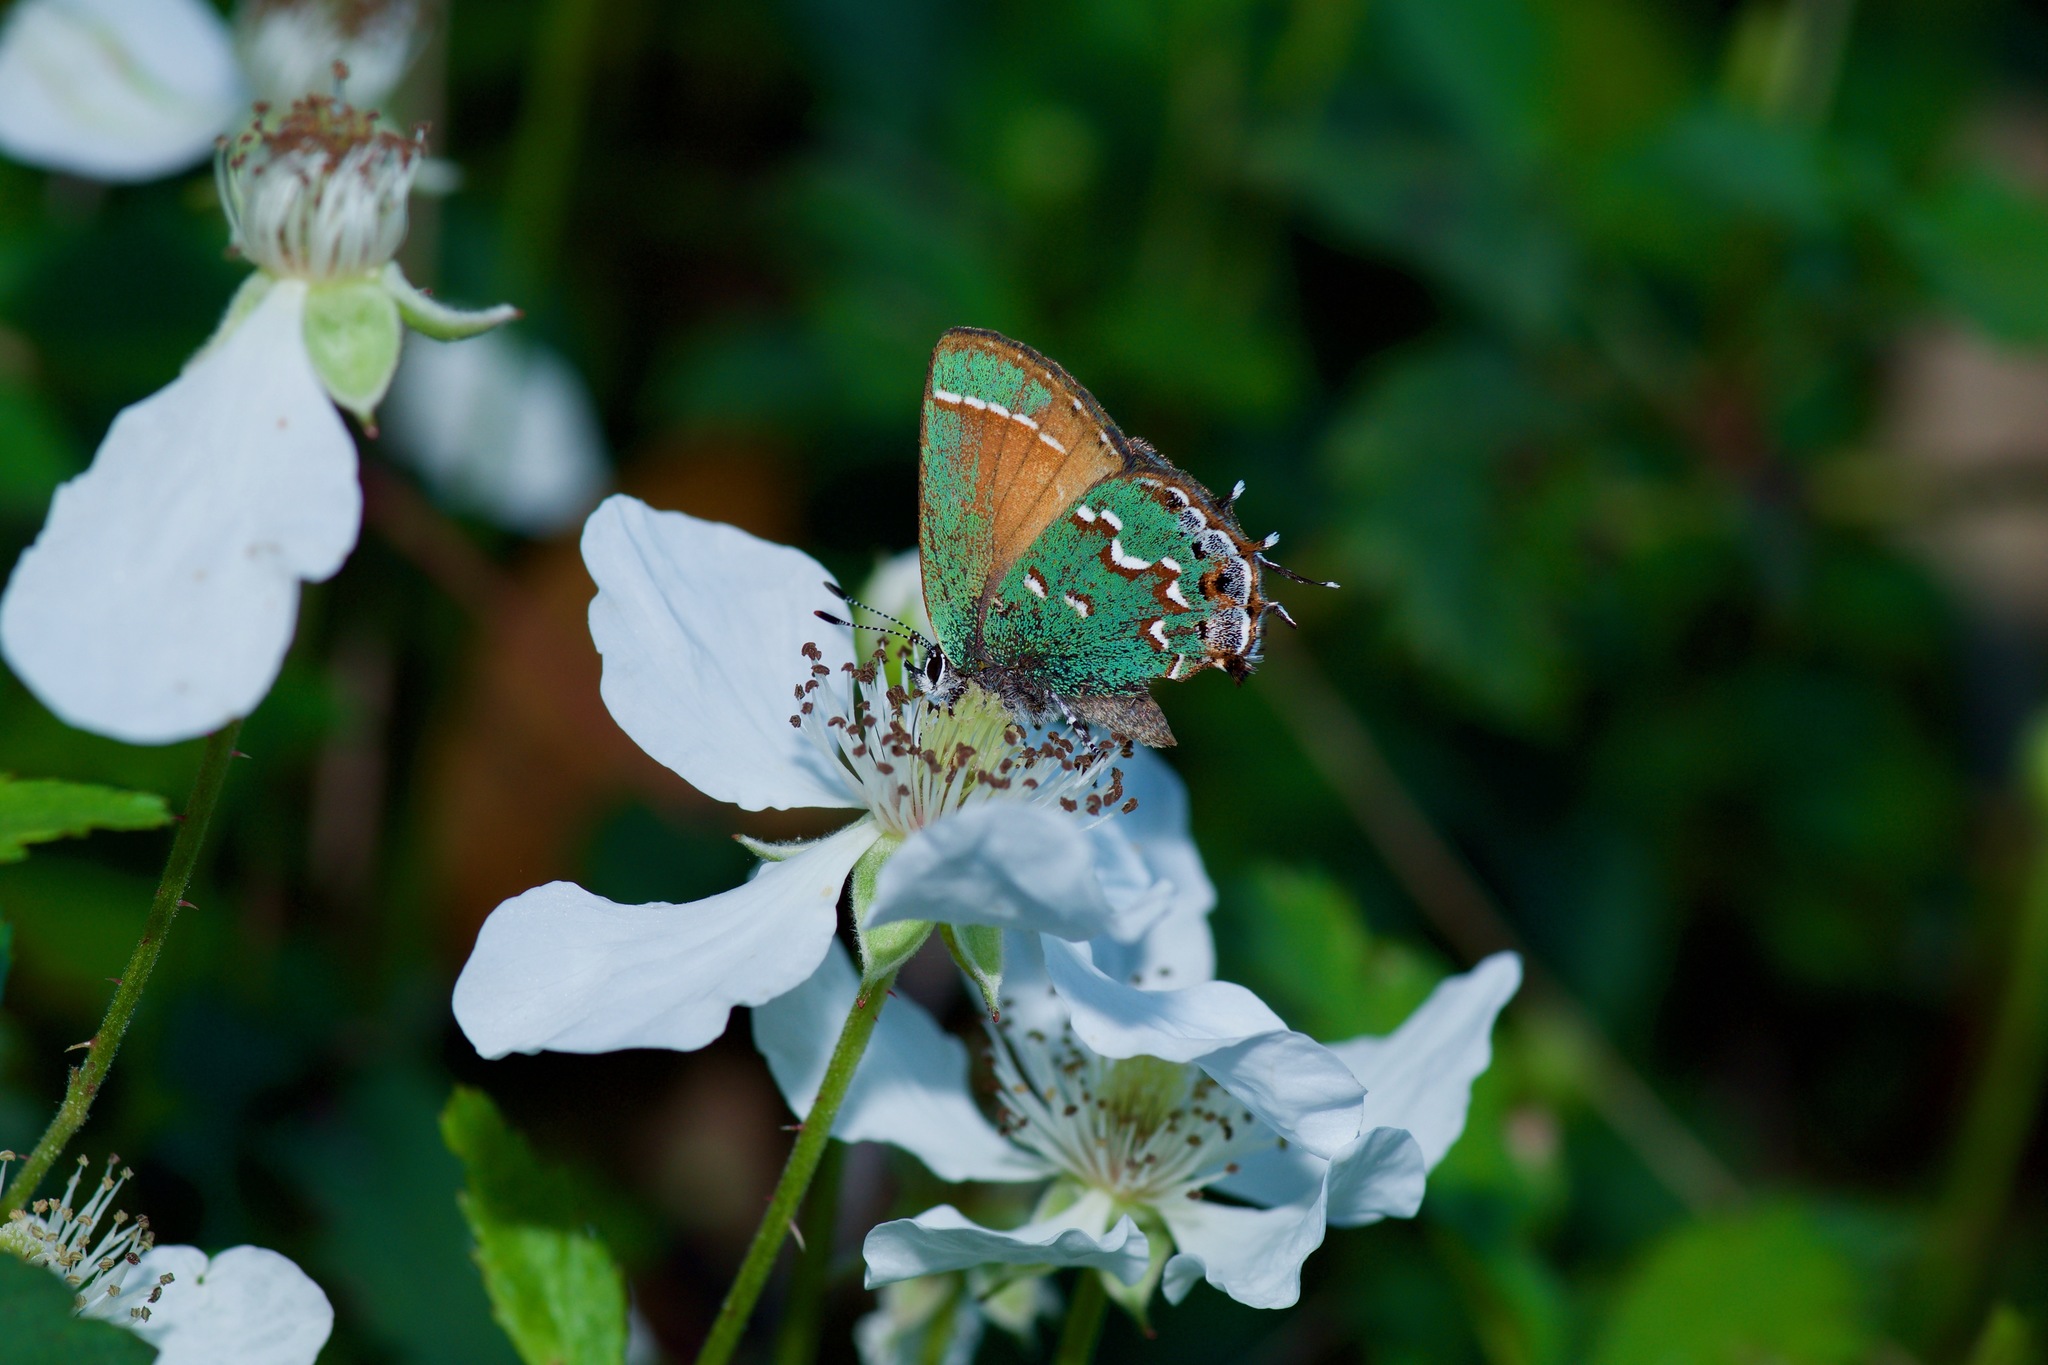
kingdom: Animalia
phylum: Arthropoda
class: Insecta
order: Lepidoptera
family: Lycaenidae
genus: Mitoura
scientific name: Mitoura gryneus
